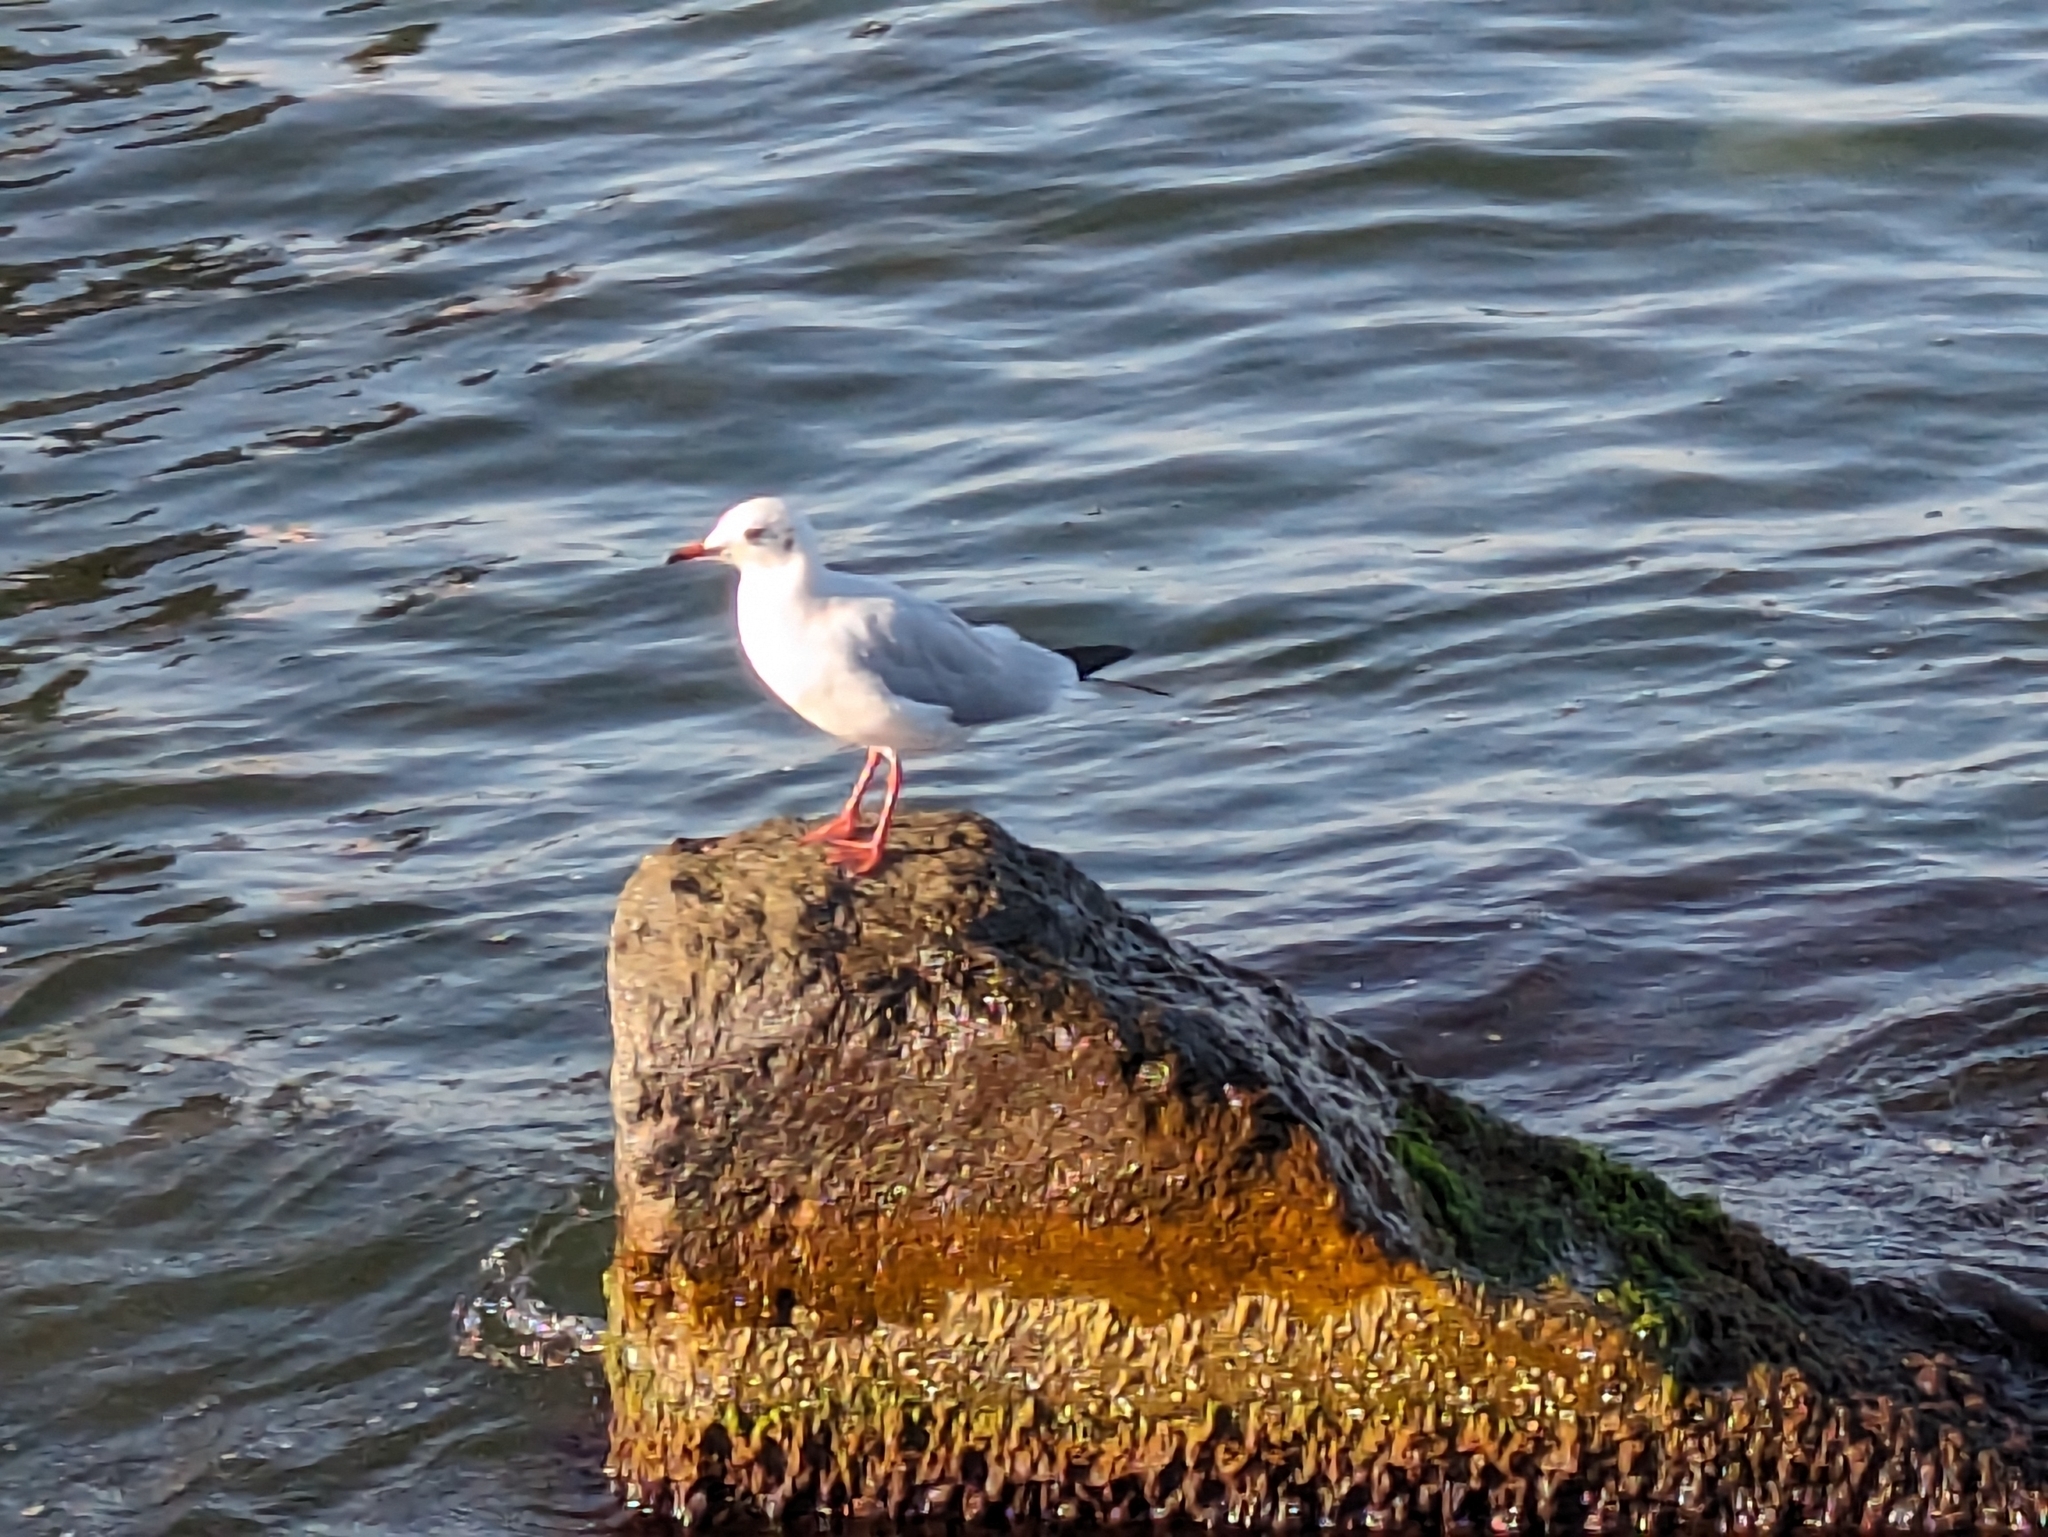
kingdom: Animalia
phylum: Chordata
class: Aves
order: Charadriiformes
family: Laridae
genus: Chroicocephalus
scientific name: Chroicocephalus ridibundus
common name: Black-headed gull
